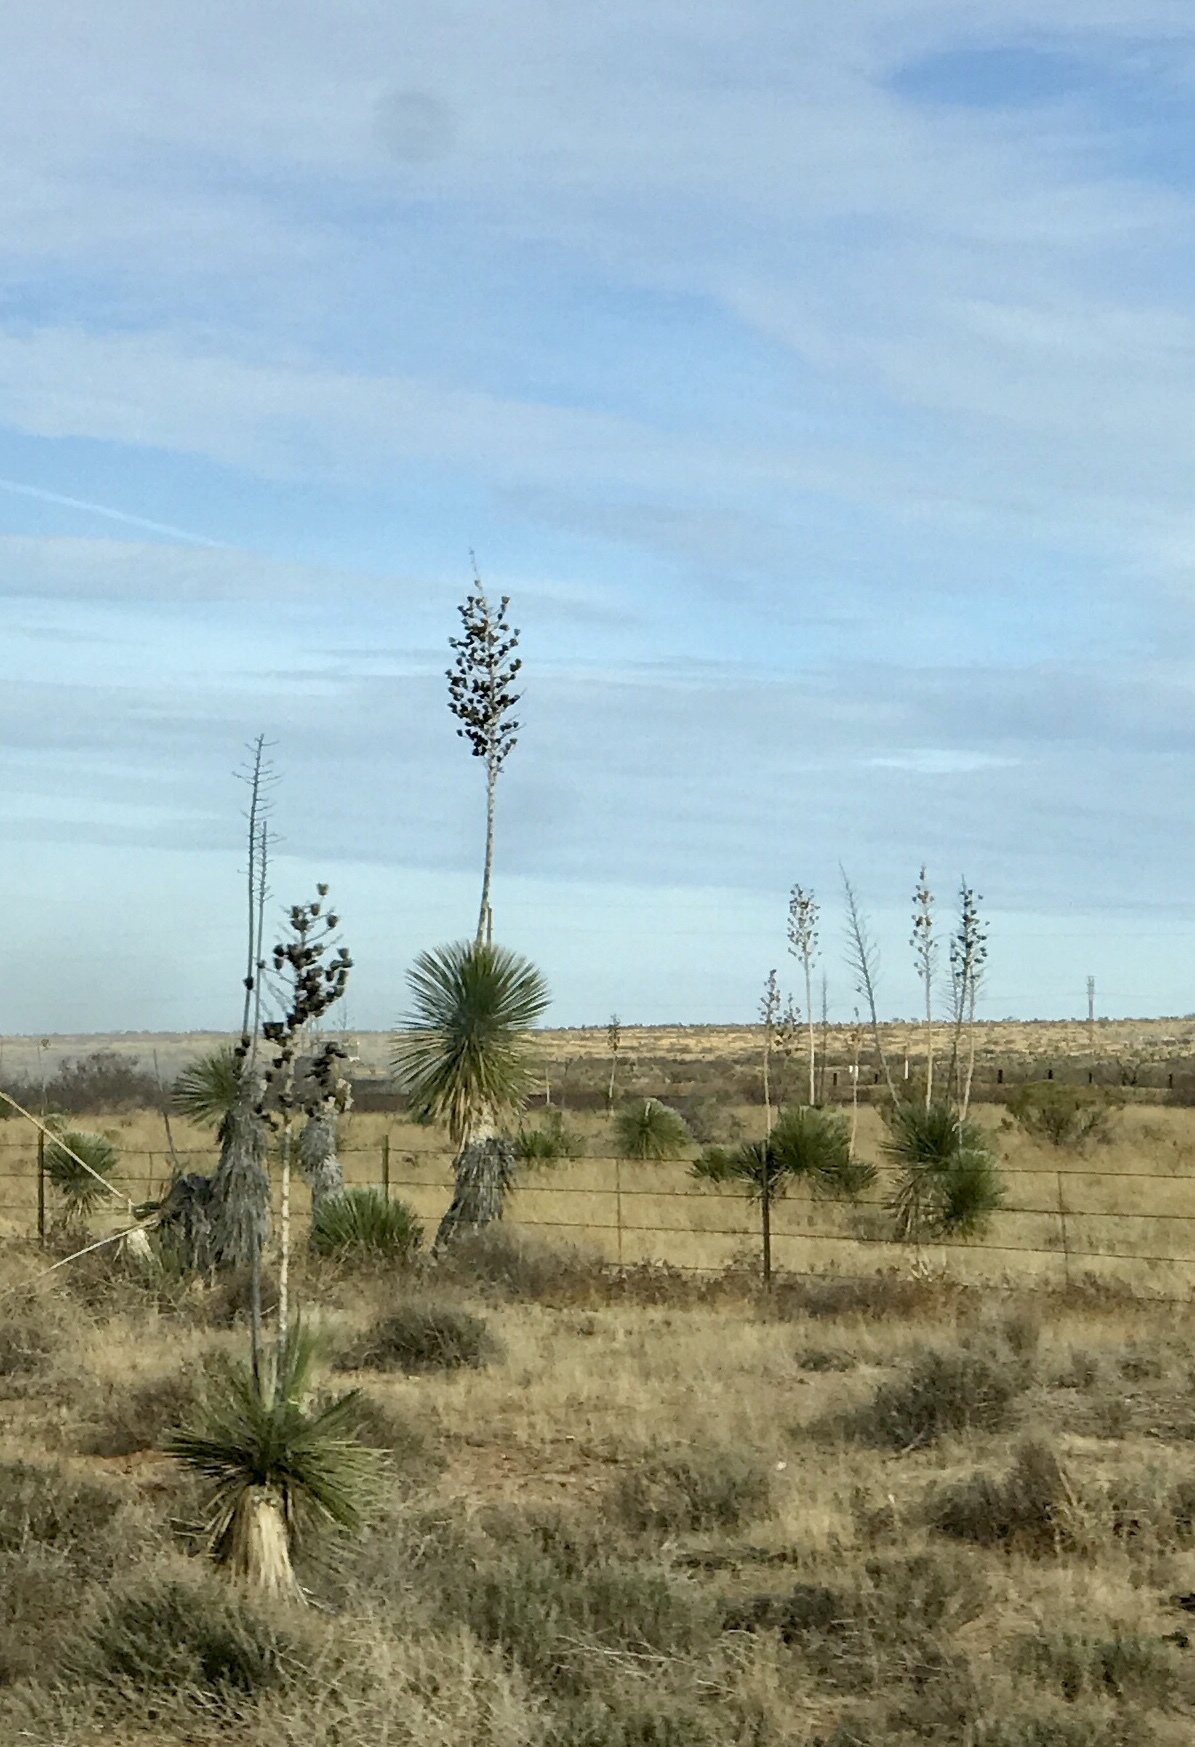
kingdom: Plantae
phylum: Tracheophyta
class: Liliopsida
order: Asparagales
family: Asparagaceae
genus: Yucca
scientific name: Yucca elata
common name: Palmella
